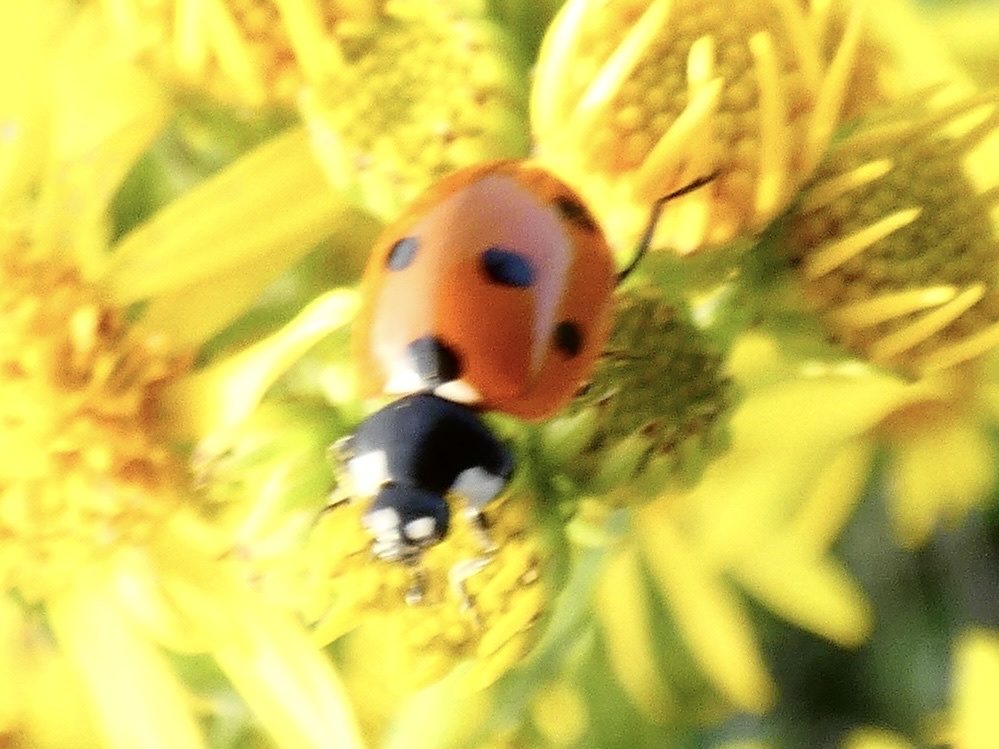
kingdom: Animalia
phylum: Arthropoda
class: Insecta
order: Coleoptera
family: Coccinellidae
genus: Coccinella
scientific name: Coccinella septempunctata
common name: Sevenspotted lady beetle
